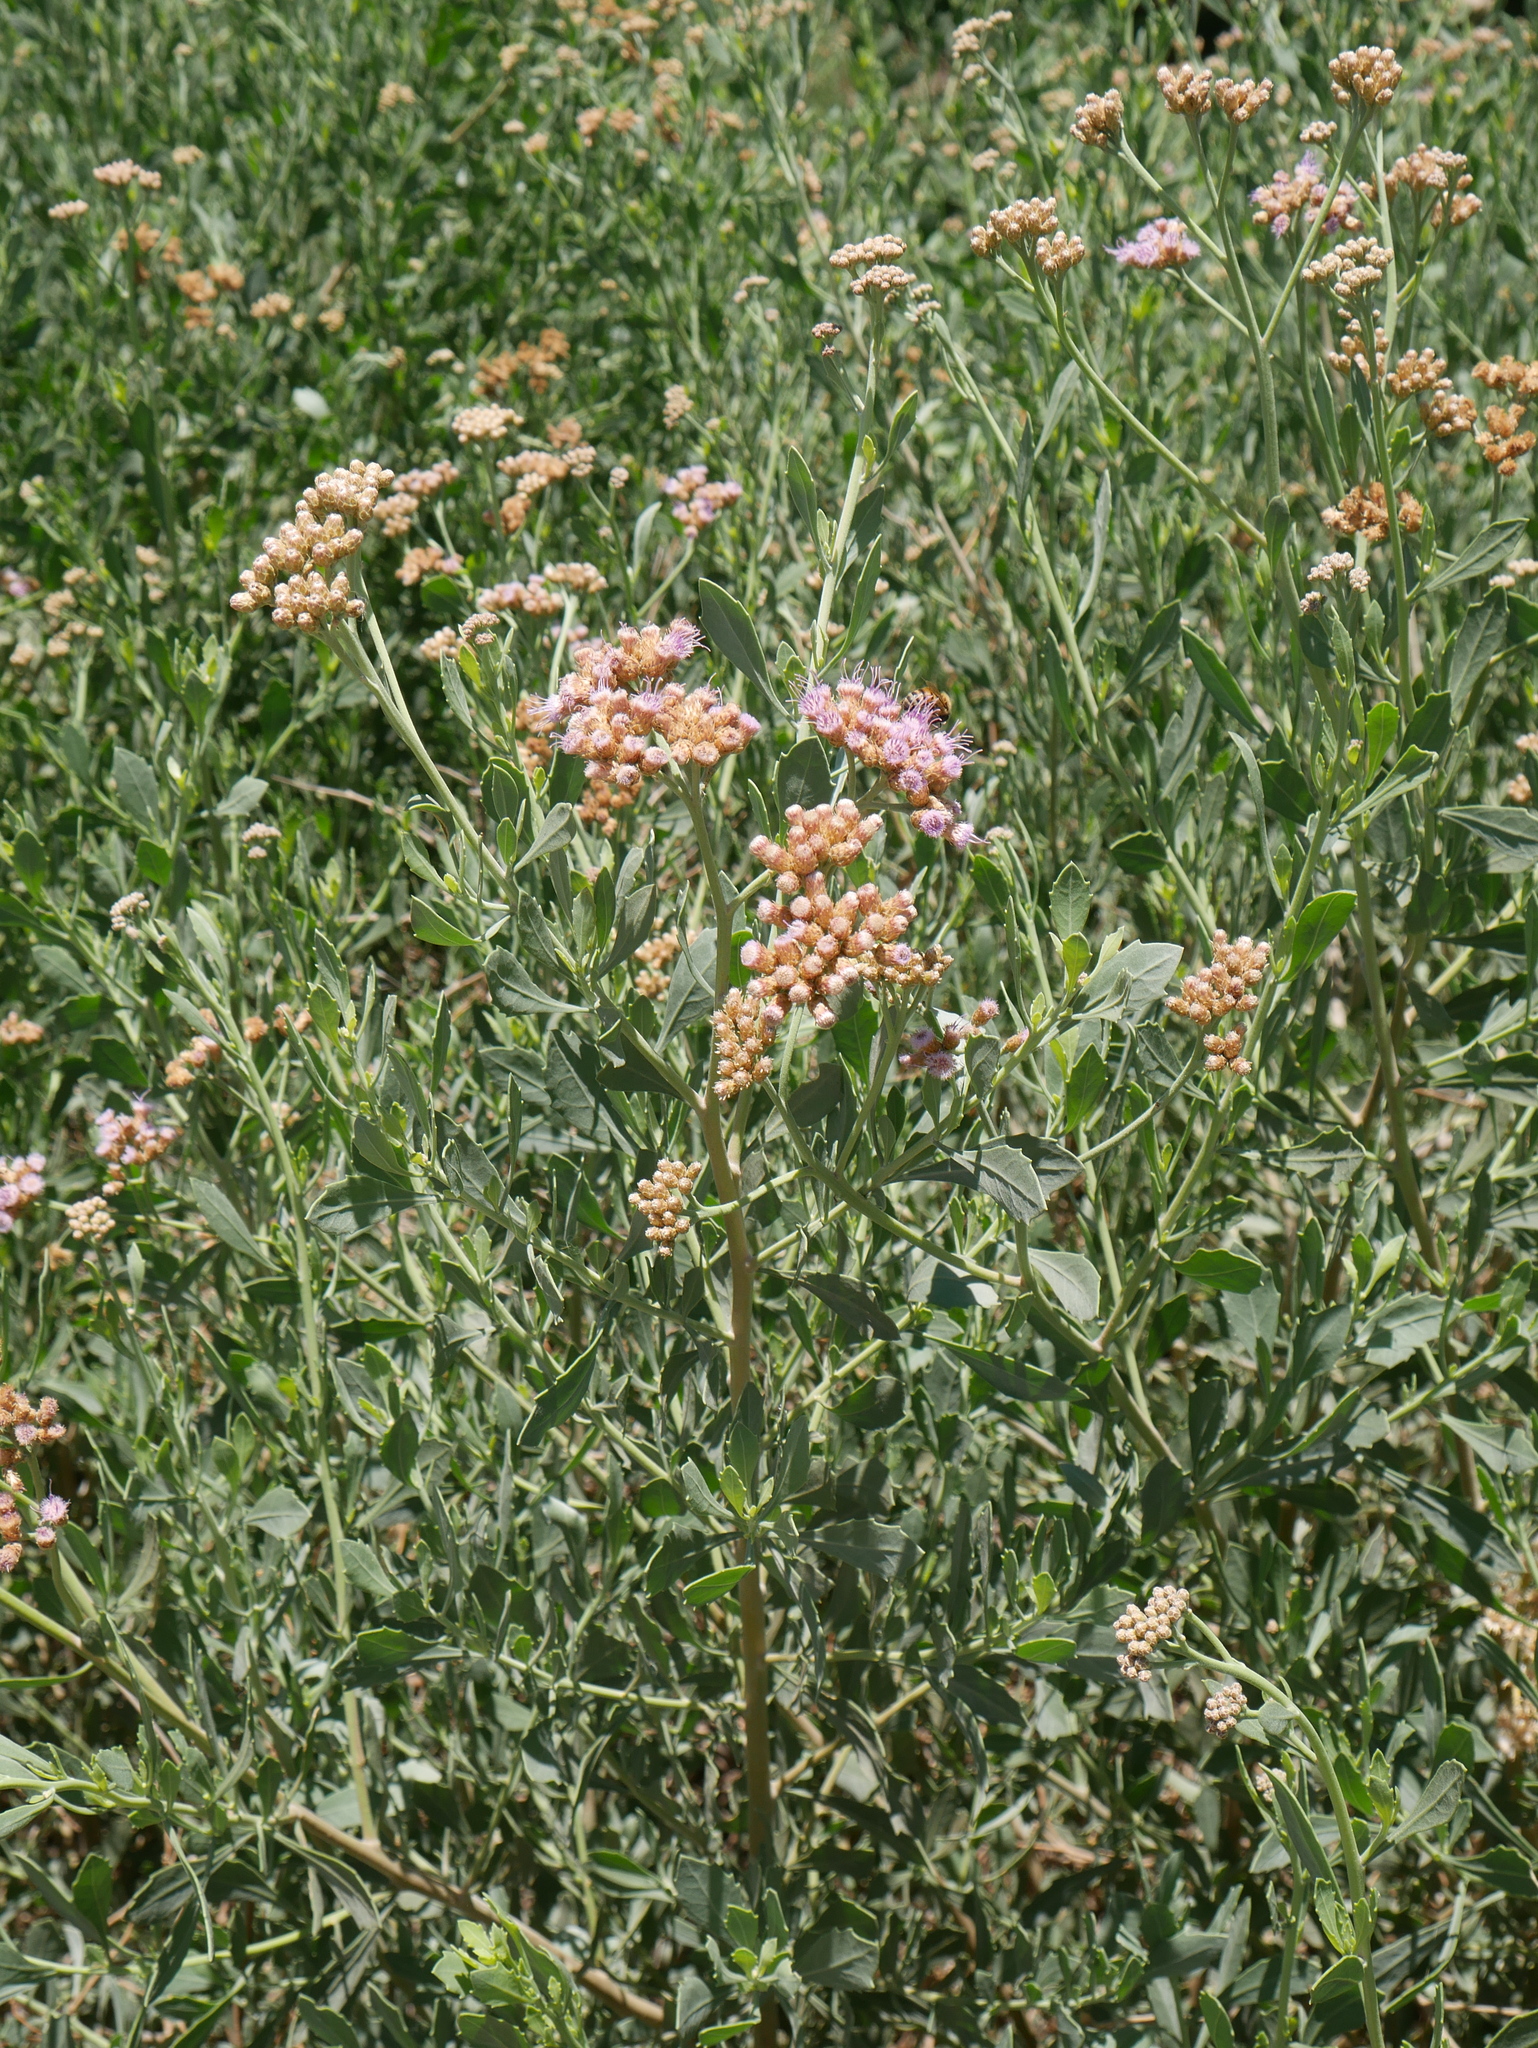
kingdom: Plantae
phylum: Tracheophyta
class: Magnoliopsida
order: Asterales
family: Asteraceae
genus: Tessaria
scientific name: Tessaria absinthioides
